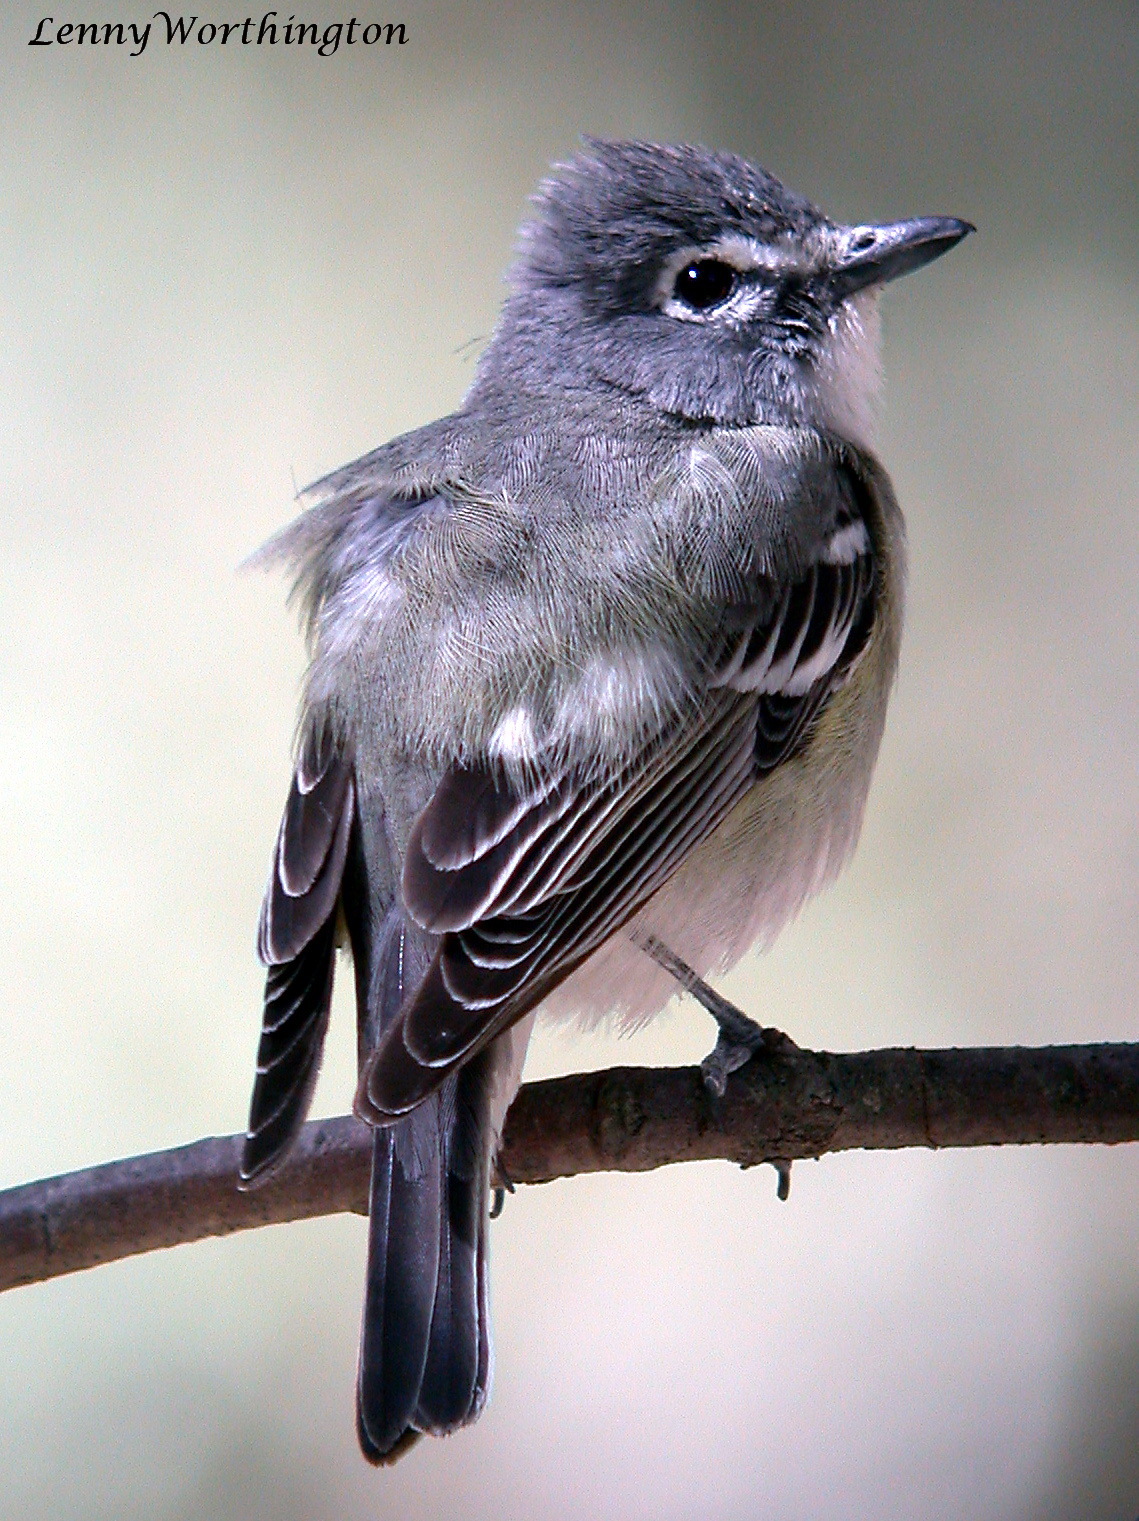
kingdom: Animalia
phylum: Chordata
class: Aves
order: Passeriformes
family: Vireonidae
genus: Vireo
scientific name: Vireo plumbeus
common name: Plumbeous vireo
